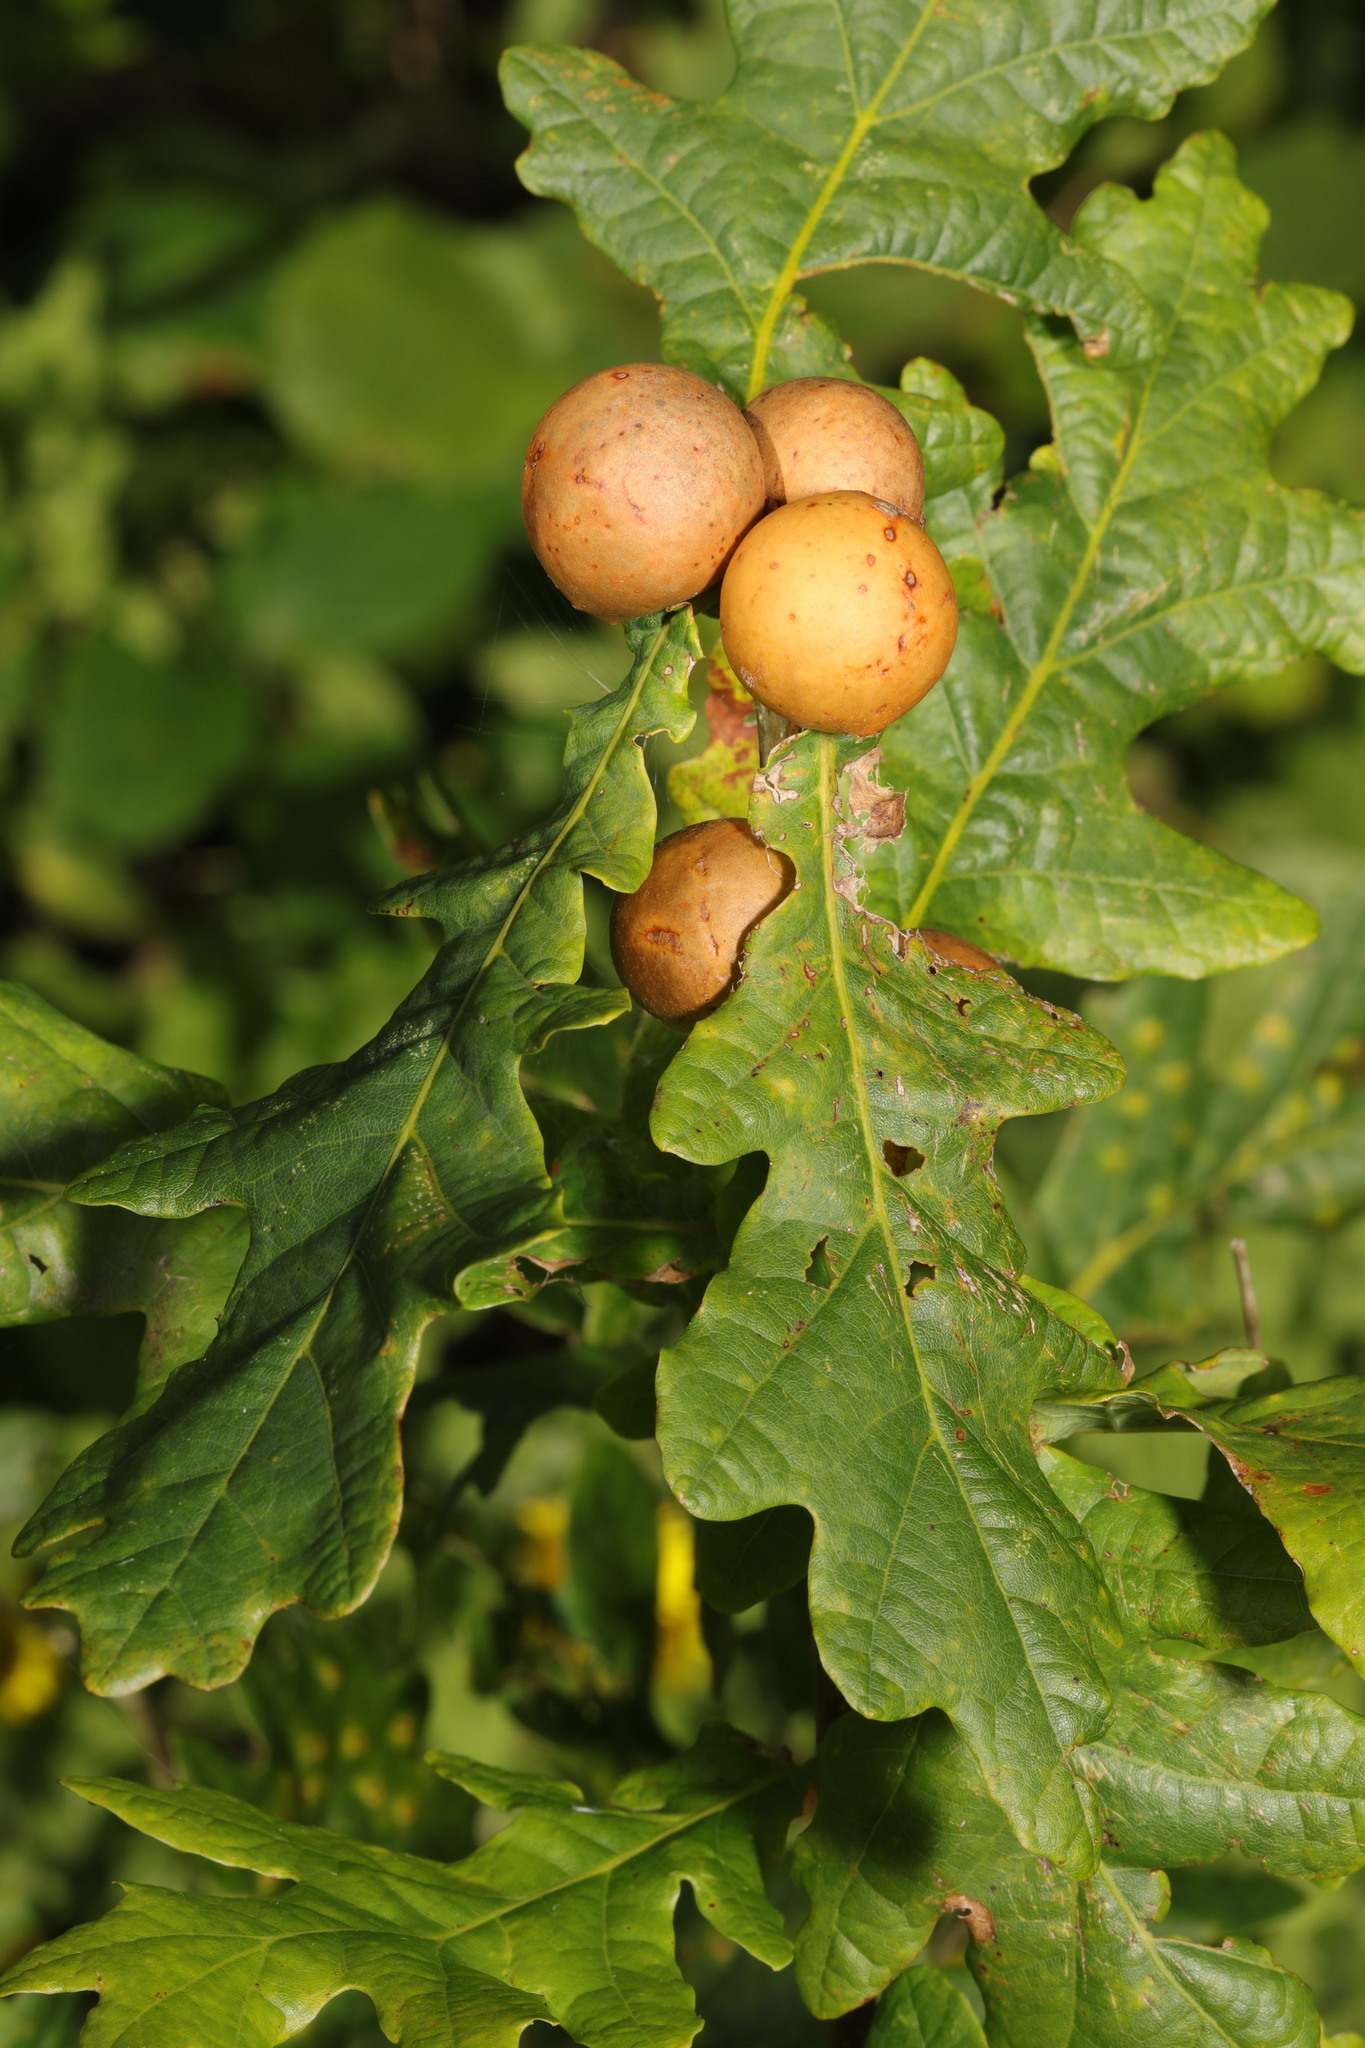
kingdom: Animalia
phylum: Arthropoda
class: Insecta
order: Hymenoptera
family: Cynipidae
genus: Andricus
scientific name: Andricus kollari
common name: Marble gall
